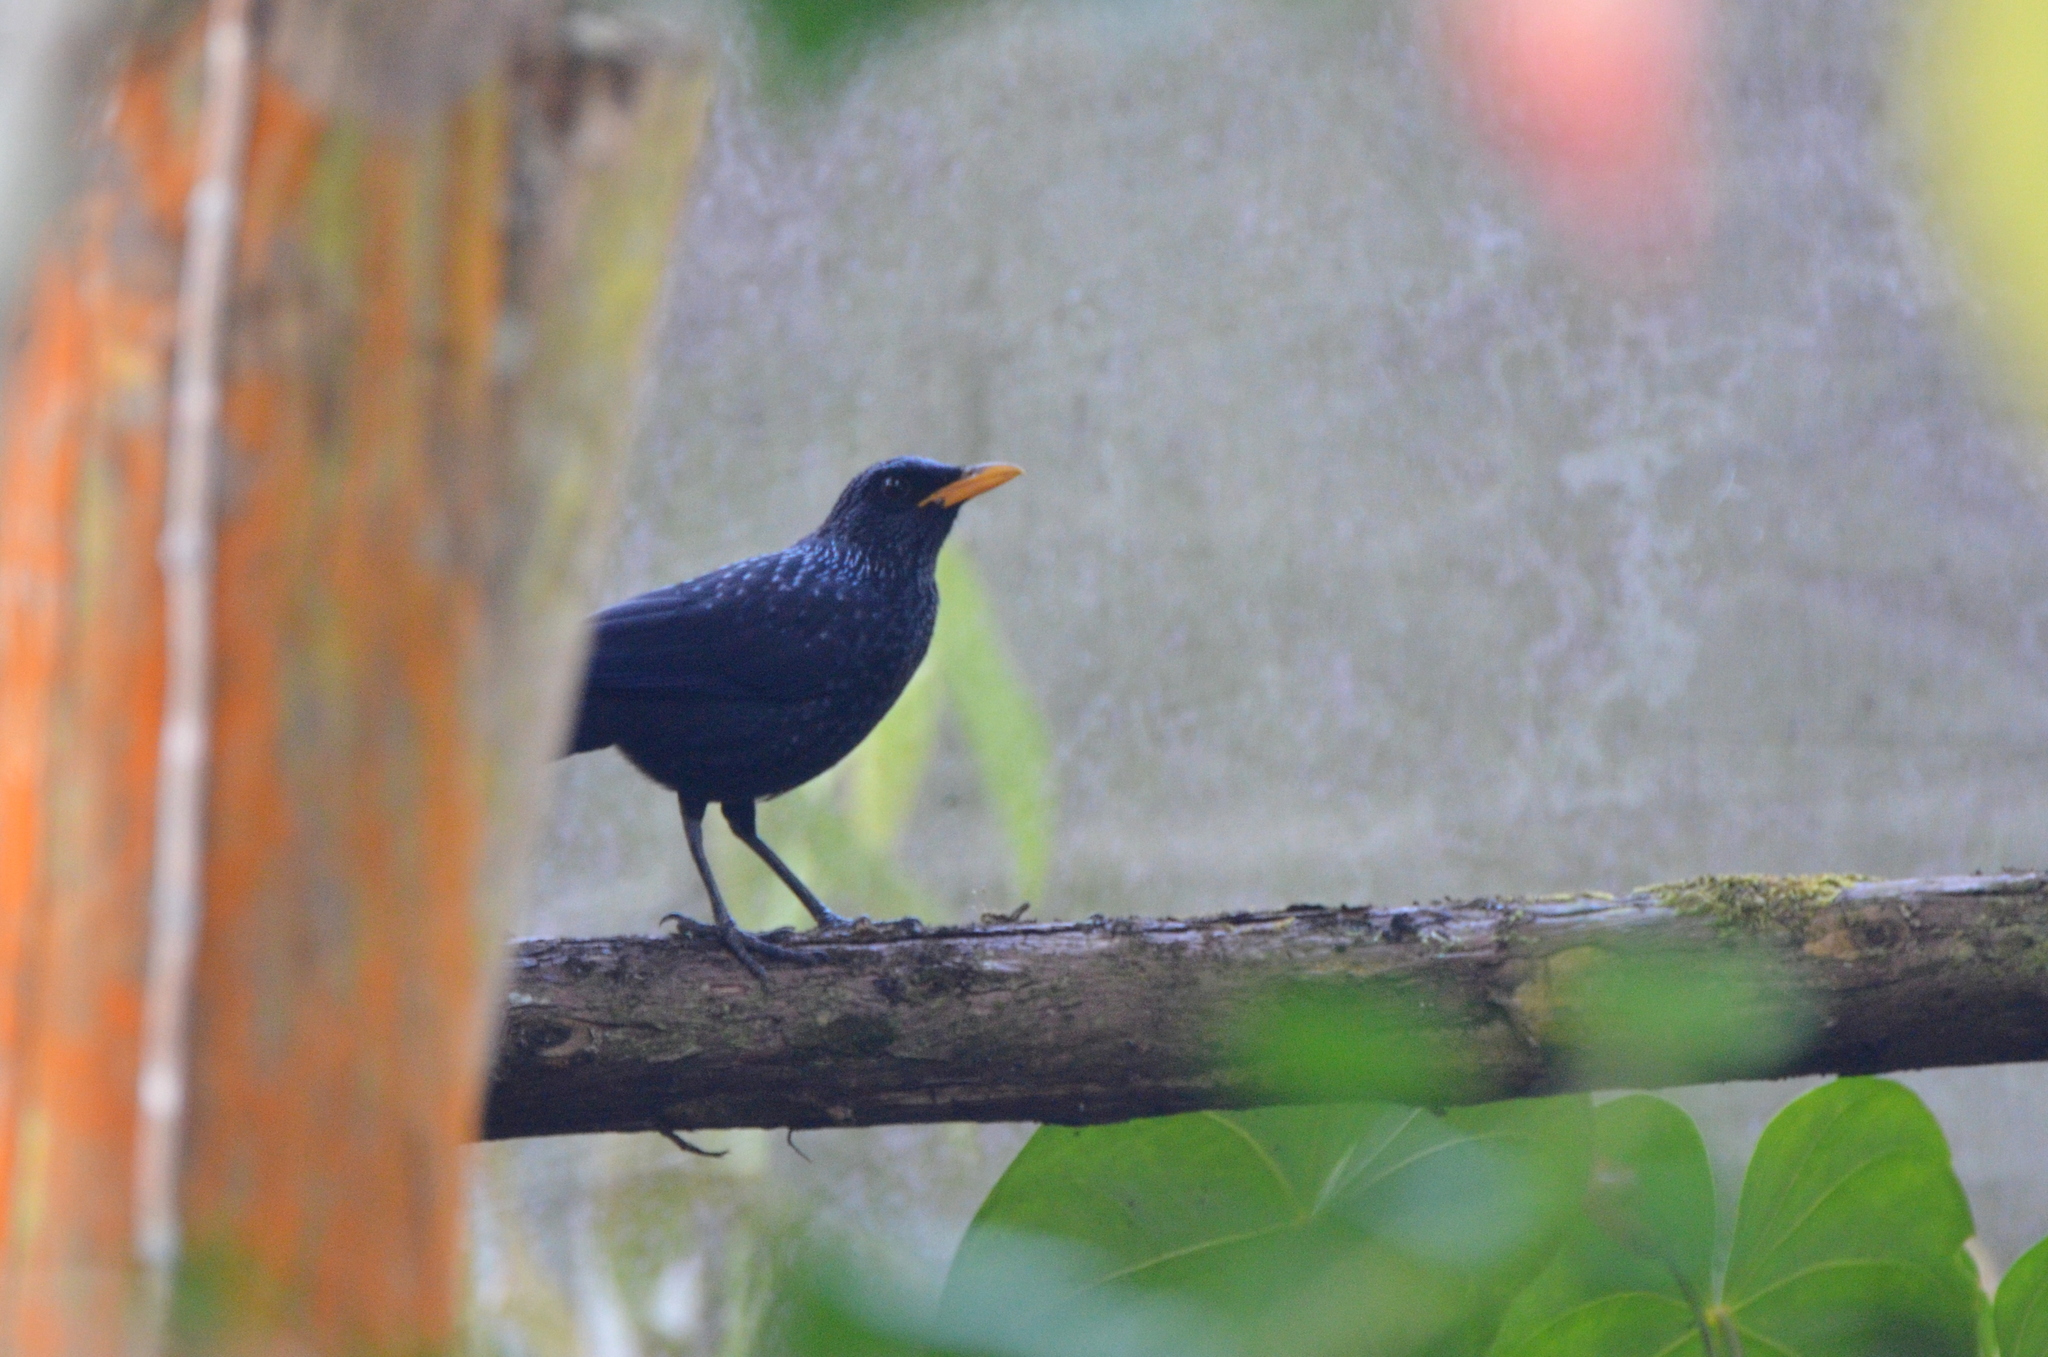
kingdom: Animalia
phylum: Chordata
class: Aves
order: Passeriformes
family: Muscicapidae
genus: Myophonus
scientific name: Myophonus caeruleus
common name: Blue whistling-thrush
